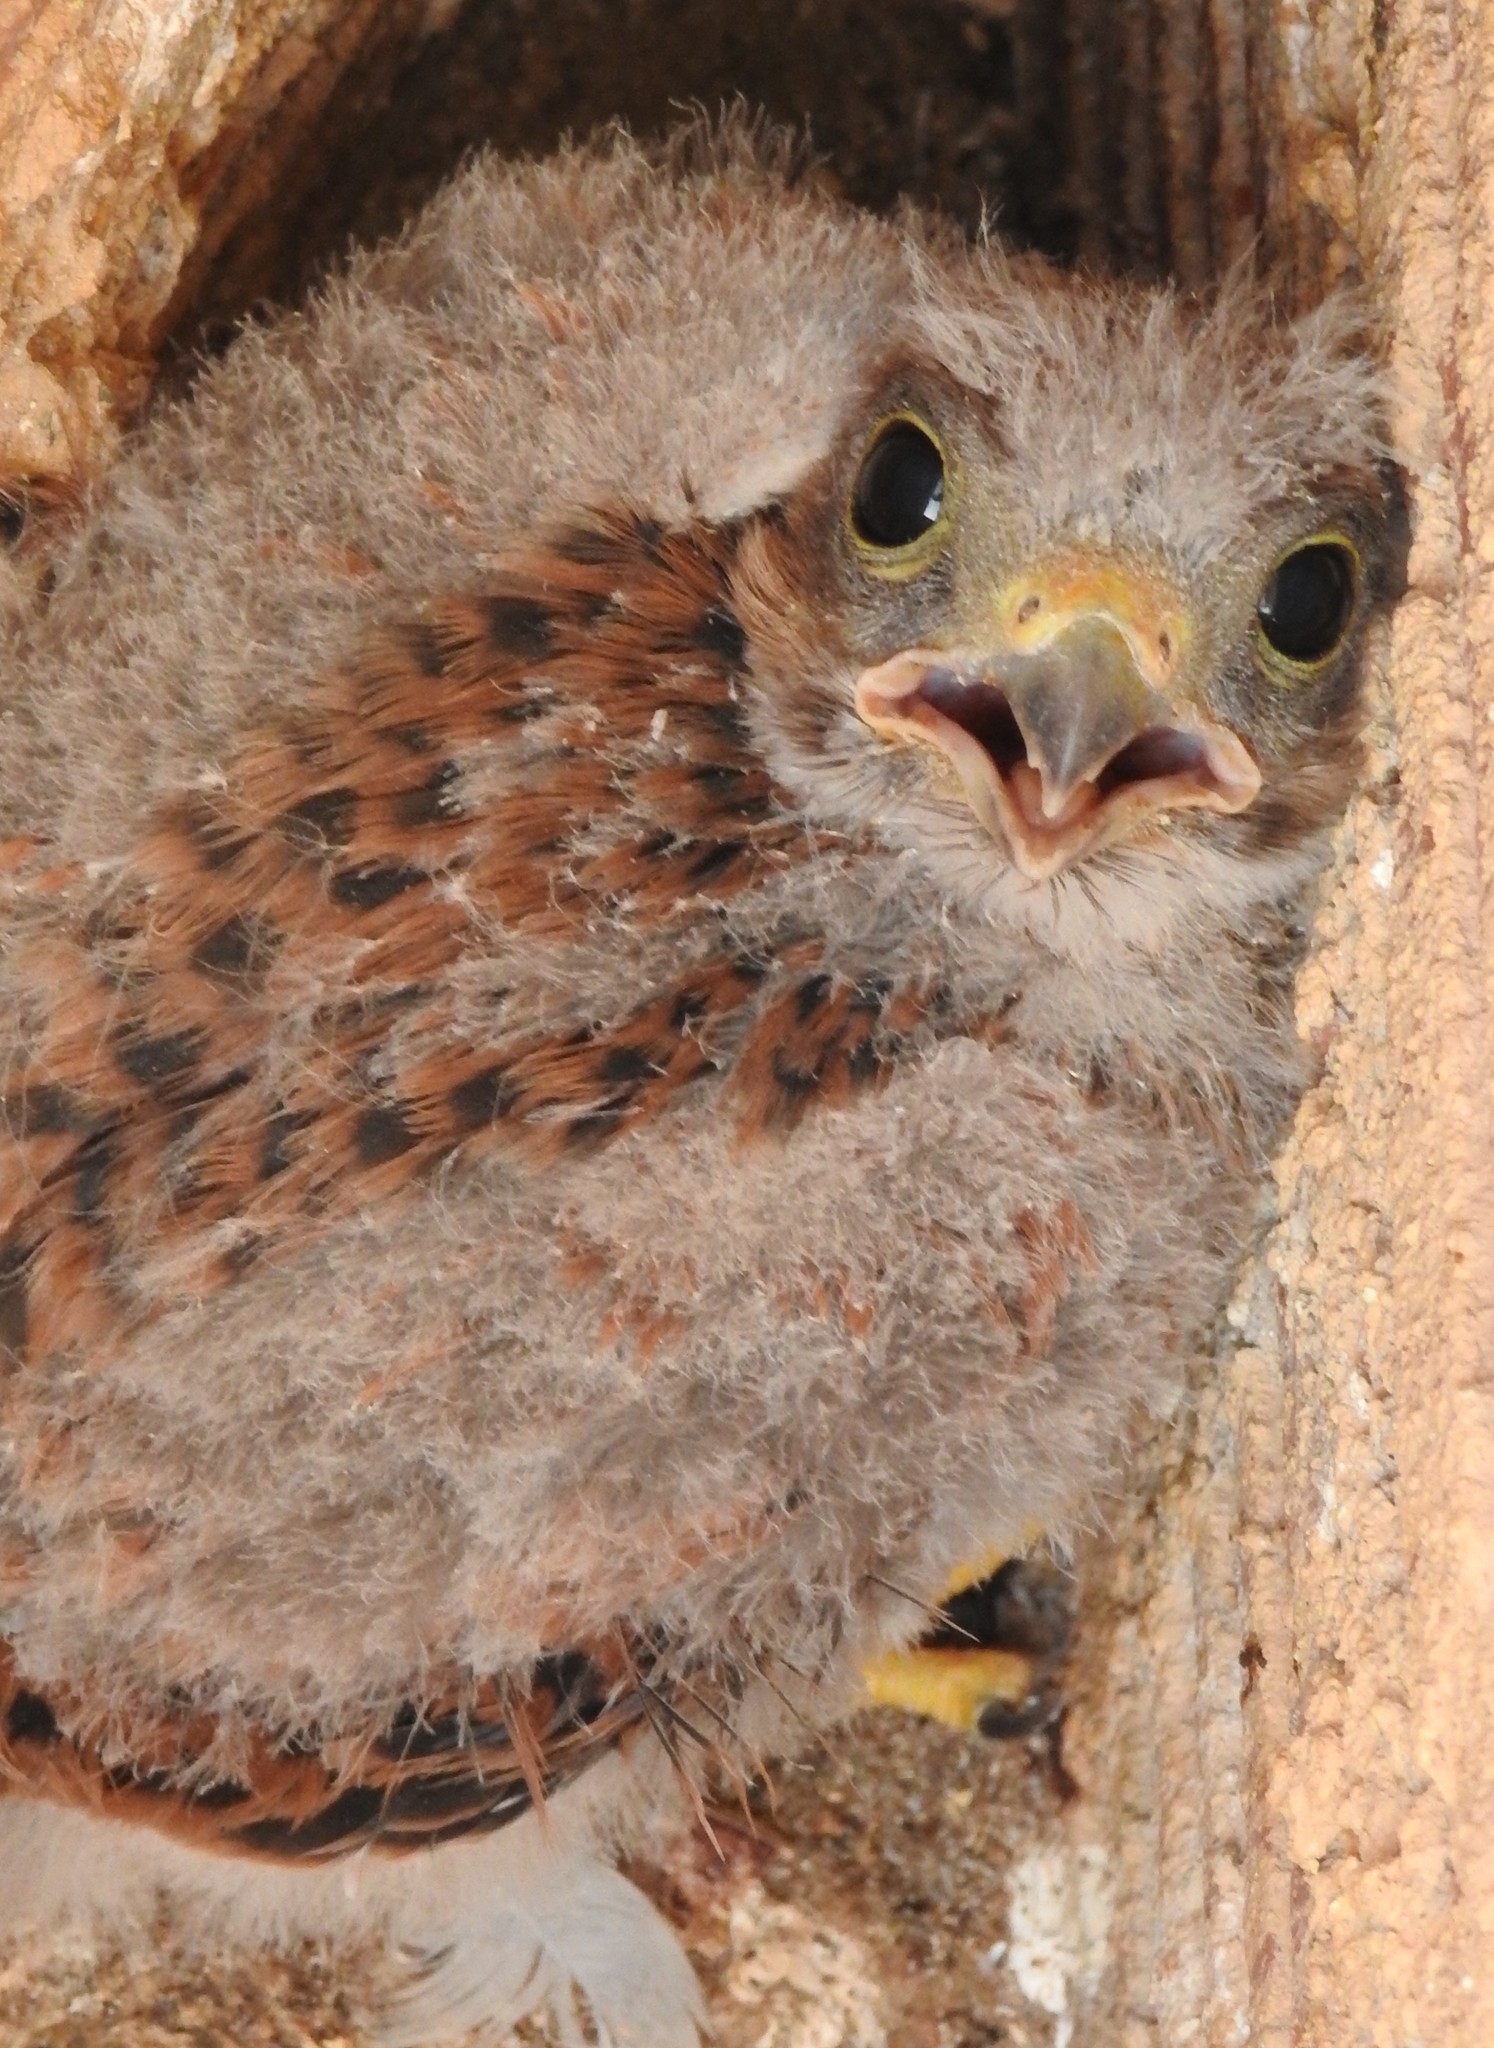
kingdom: Animalia
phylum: Chordata
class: Aves
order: Falconiformes
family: Falconidae
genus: Falco
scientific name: Falco tinnunculus
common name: Common kestrel
